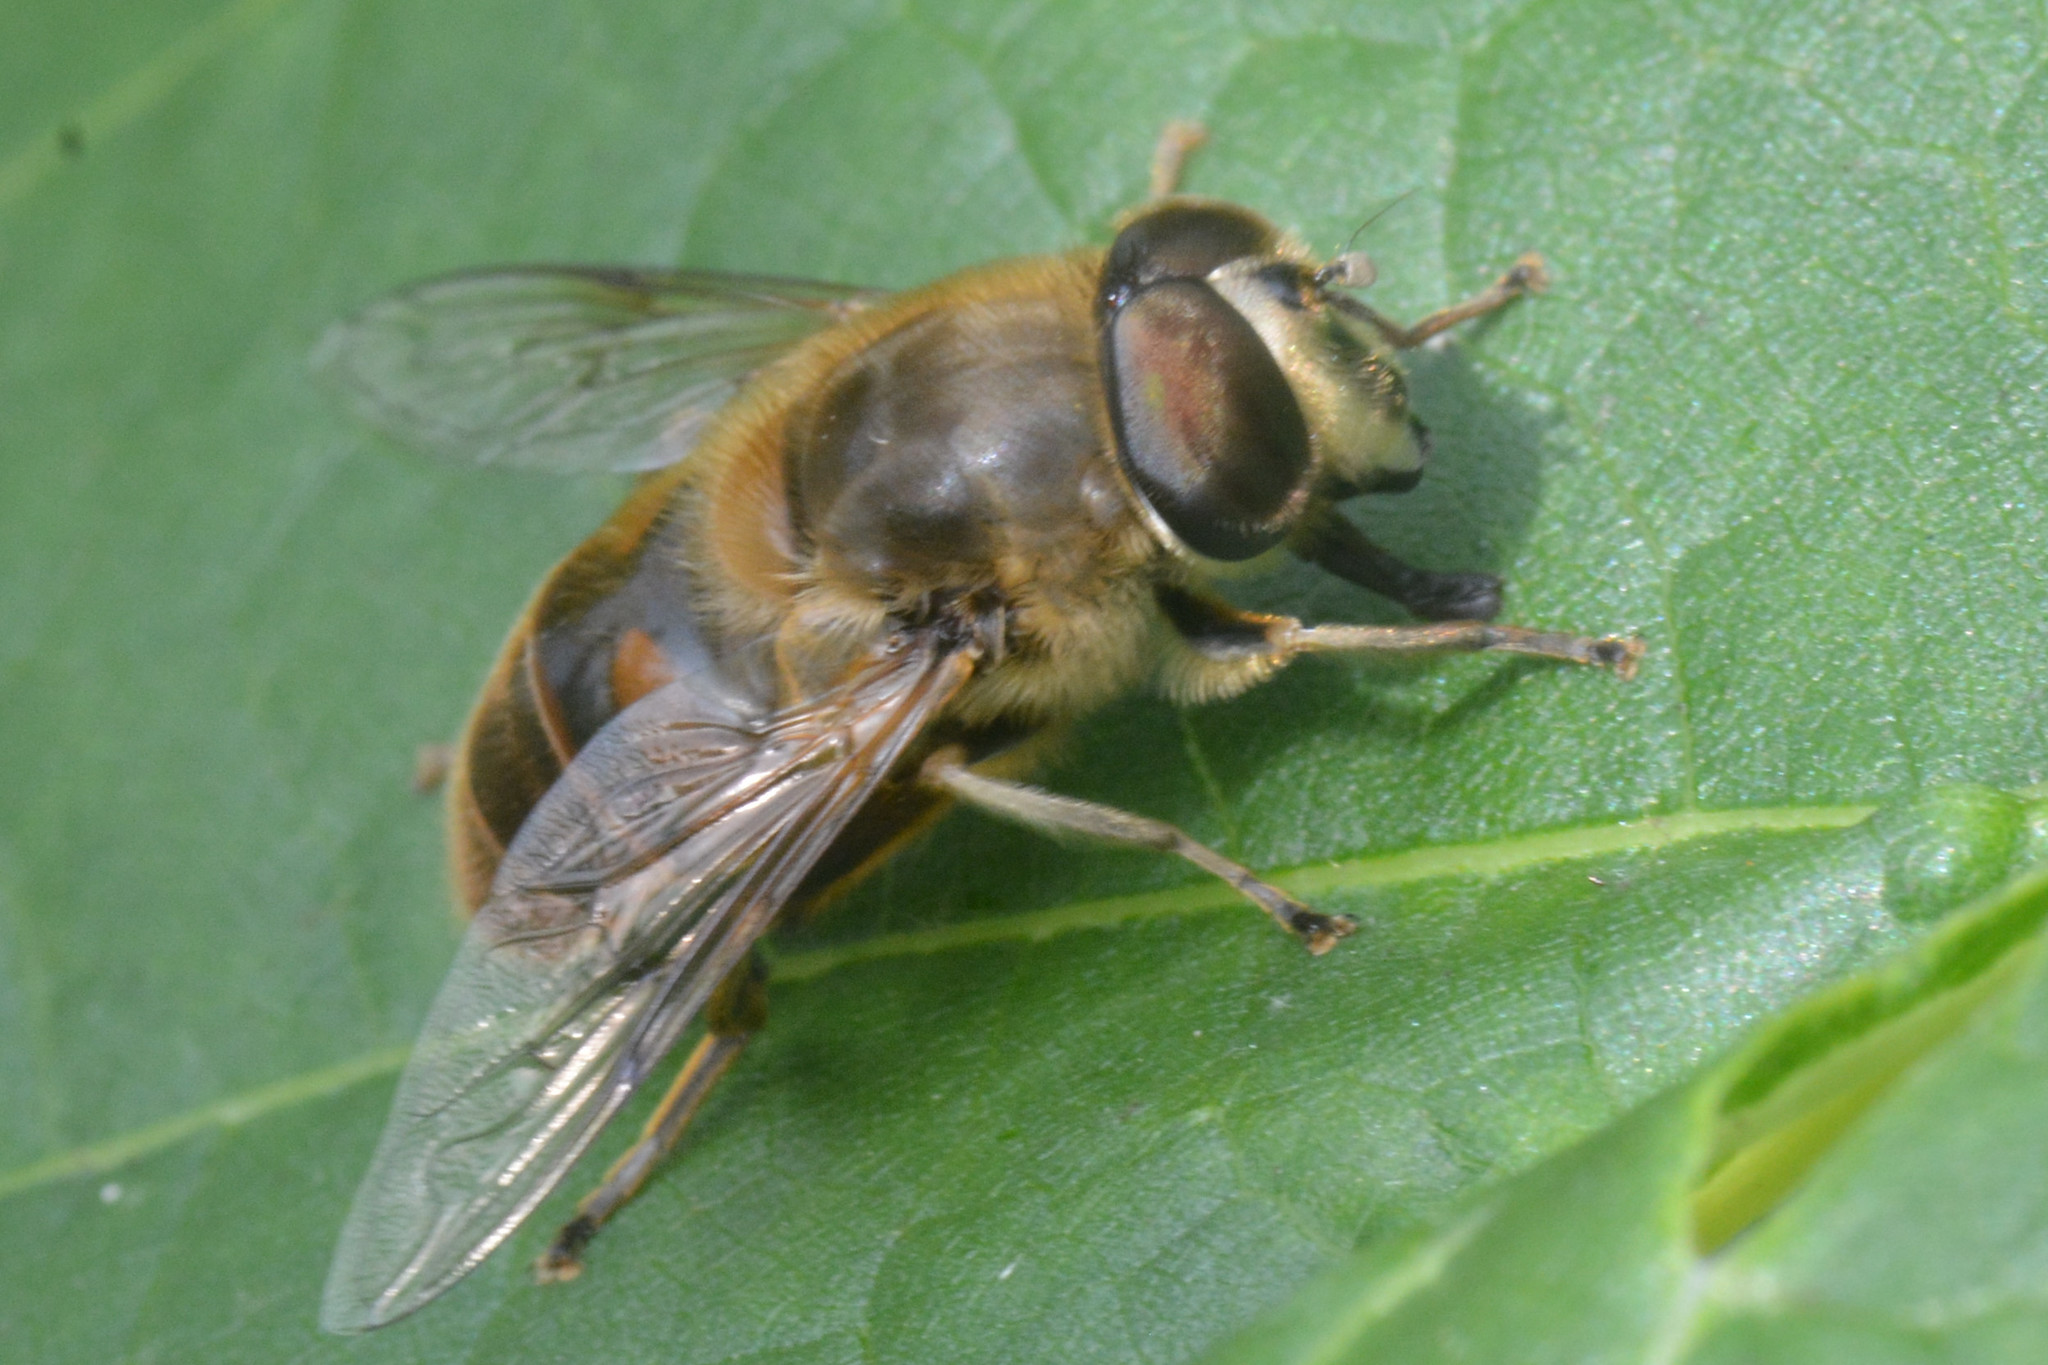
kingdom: Animalia
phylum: Arthropoda
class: Insecta
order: Diptera
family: Syrphidae
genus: Eristalis
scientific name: Eristalis tenax
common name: Drone fly
